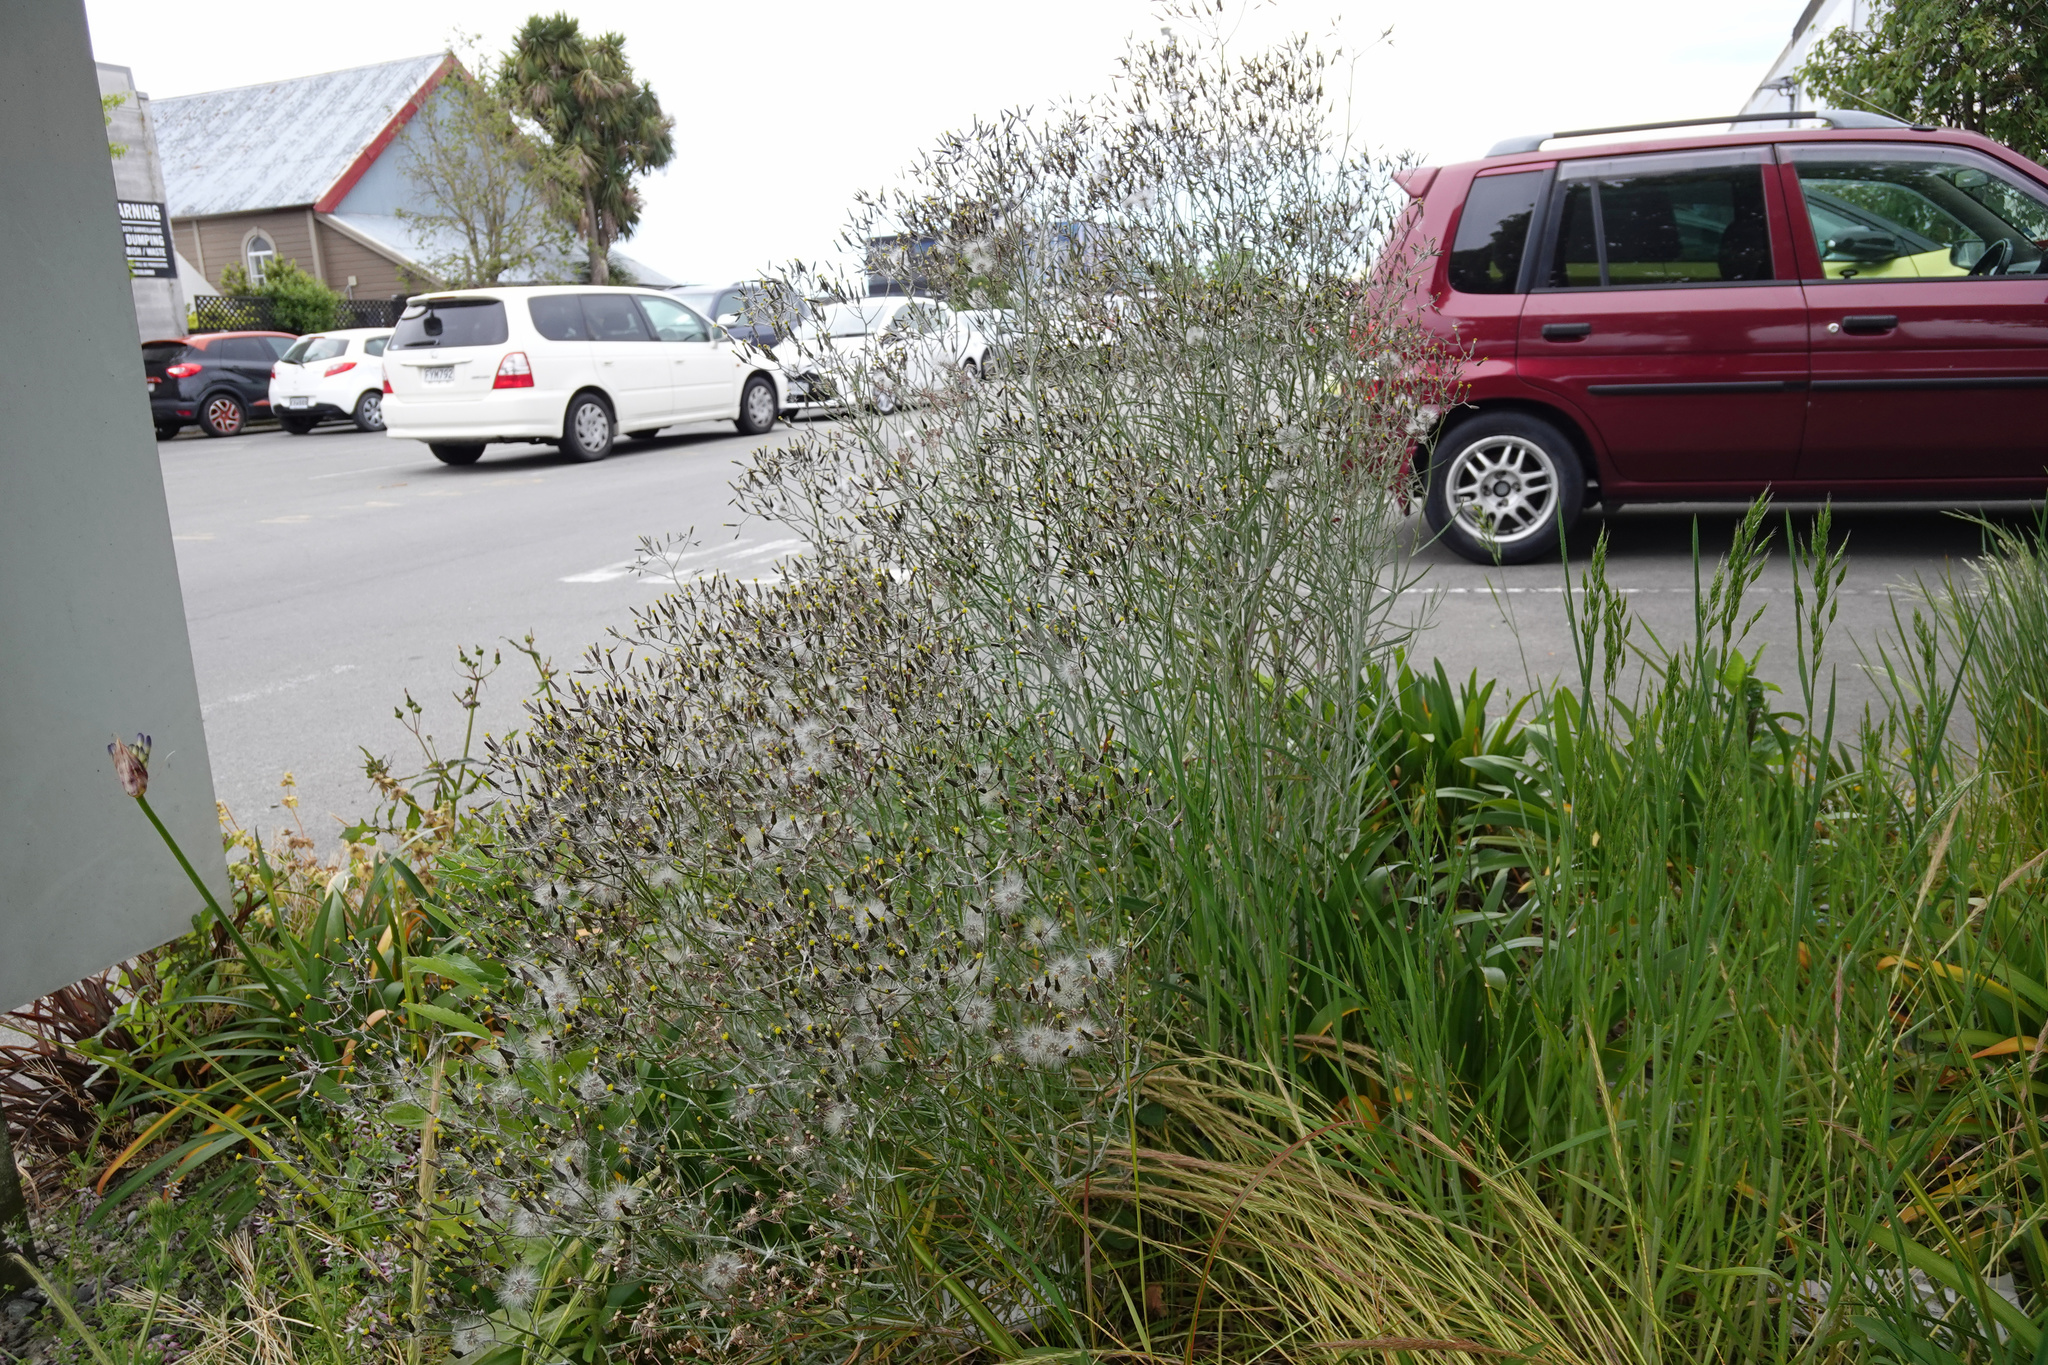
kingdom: Plantae
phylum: Tracheophyta
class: Magnoliopsida
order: Asterales
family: Asteraceae
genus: Senecio
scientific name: Senecio quadridentatus
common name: Cotton fireweed
